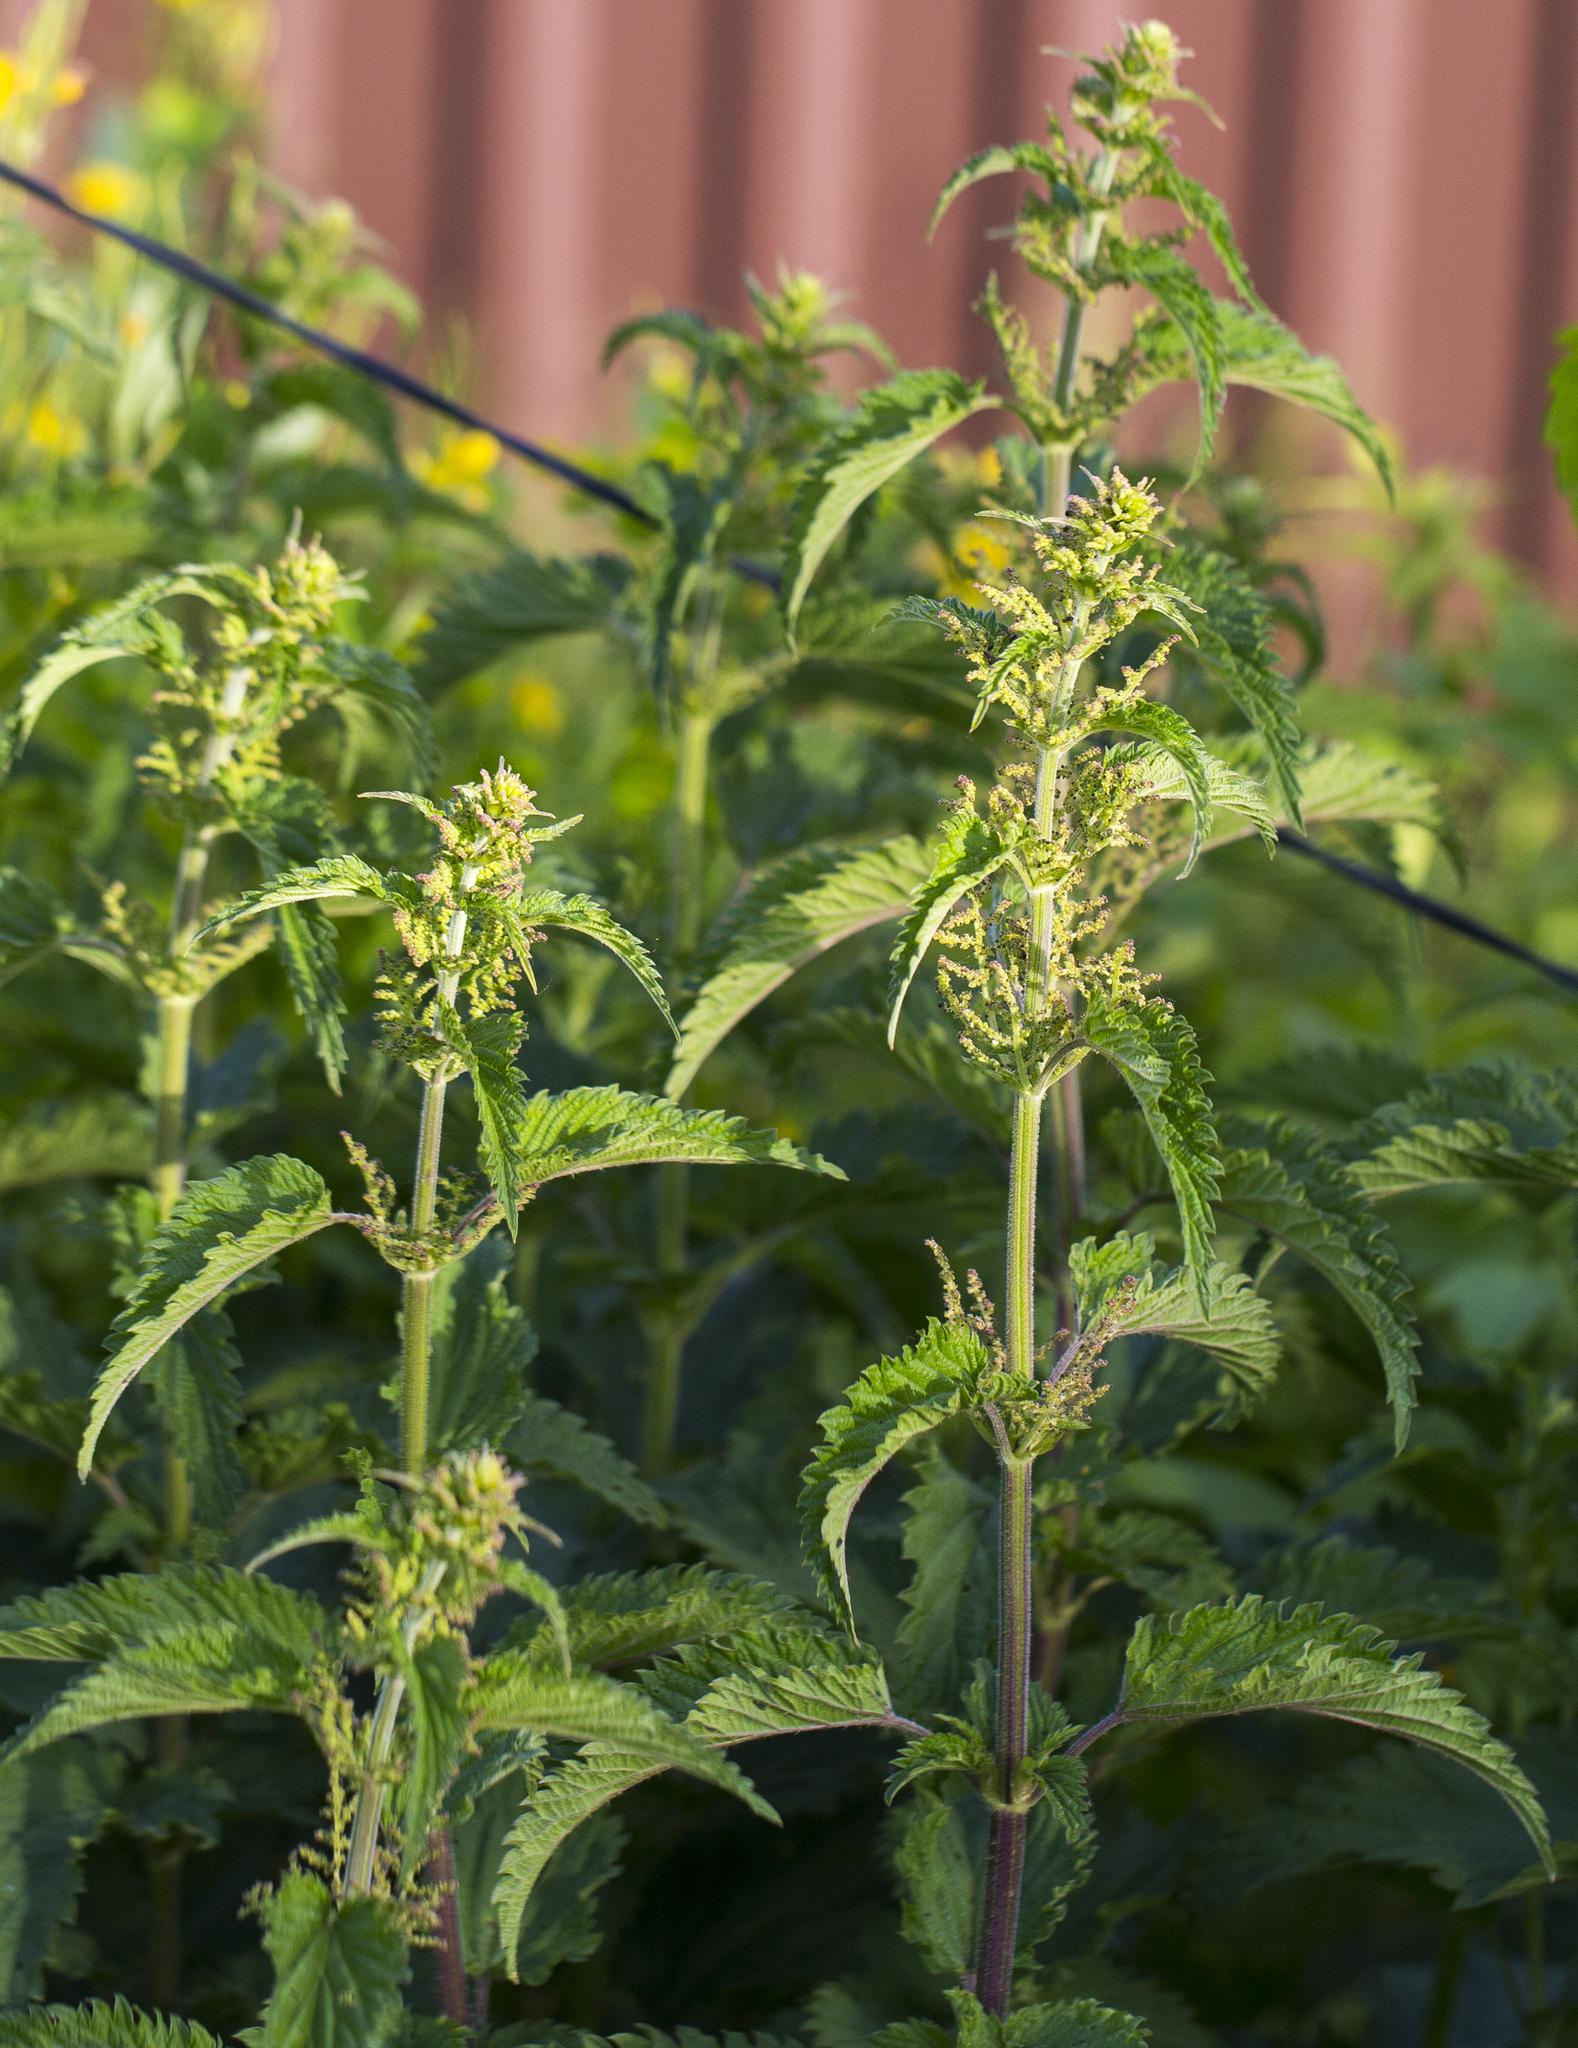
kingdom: Plantae
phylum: Tracheophyta
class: Magnoliopsida
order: Rosales
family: Urticaceae
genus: Urtica
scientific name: Urtica dioica
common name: Common nettle
